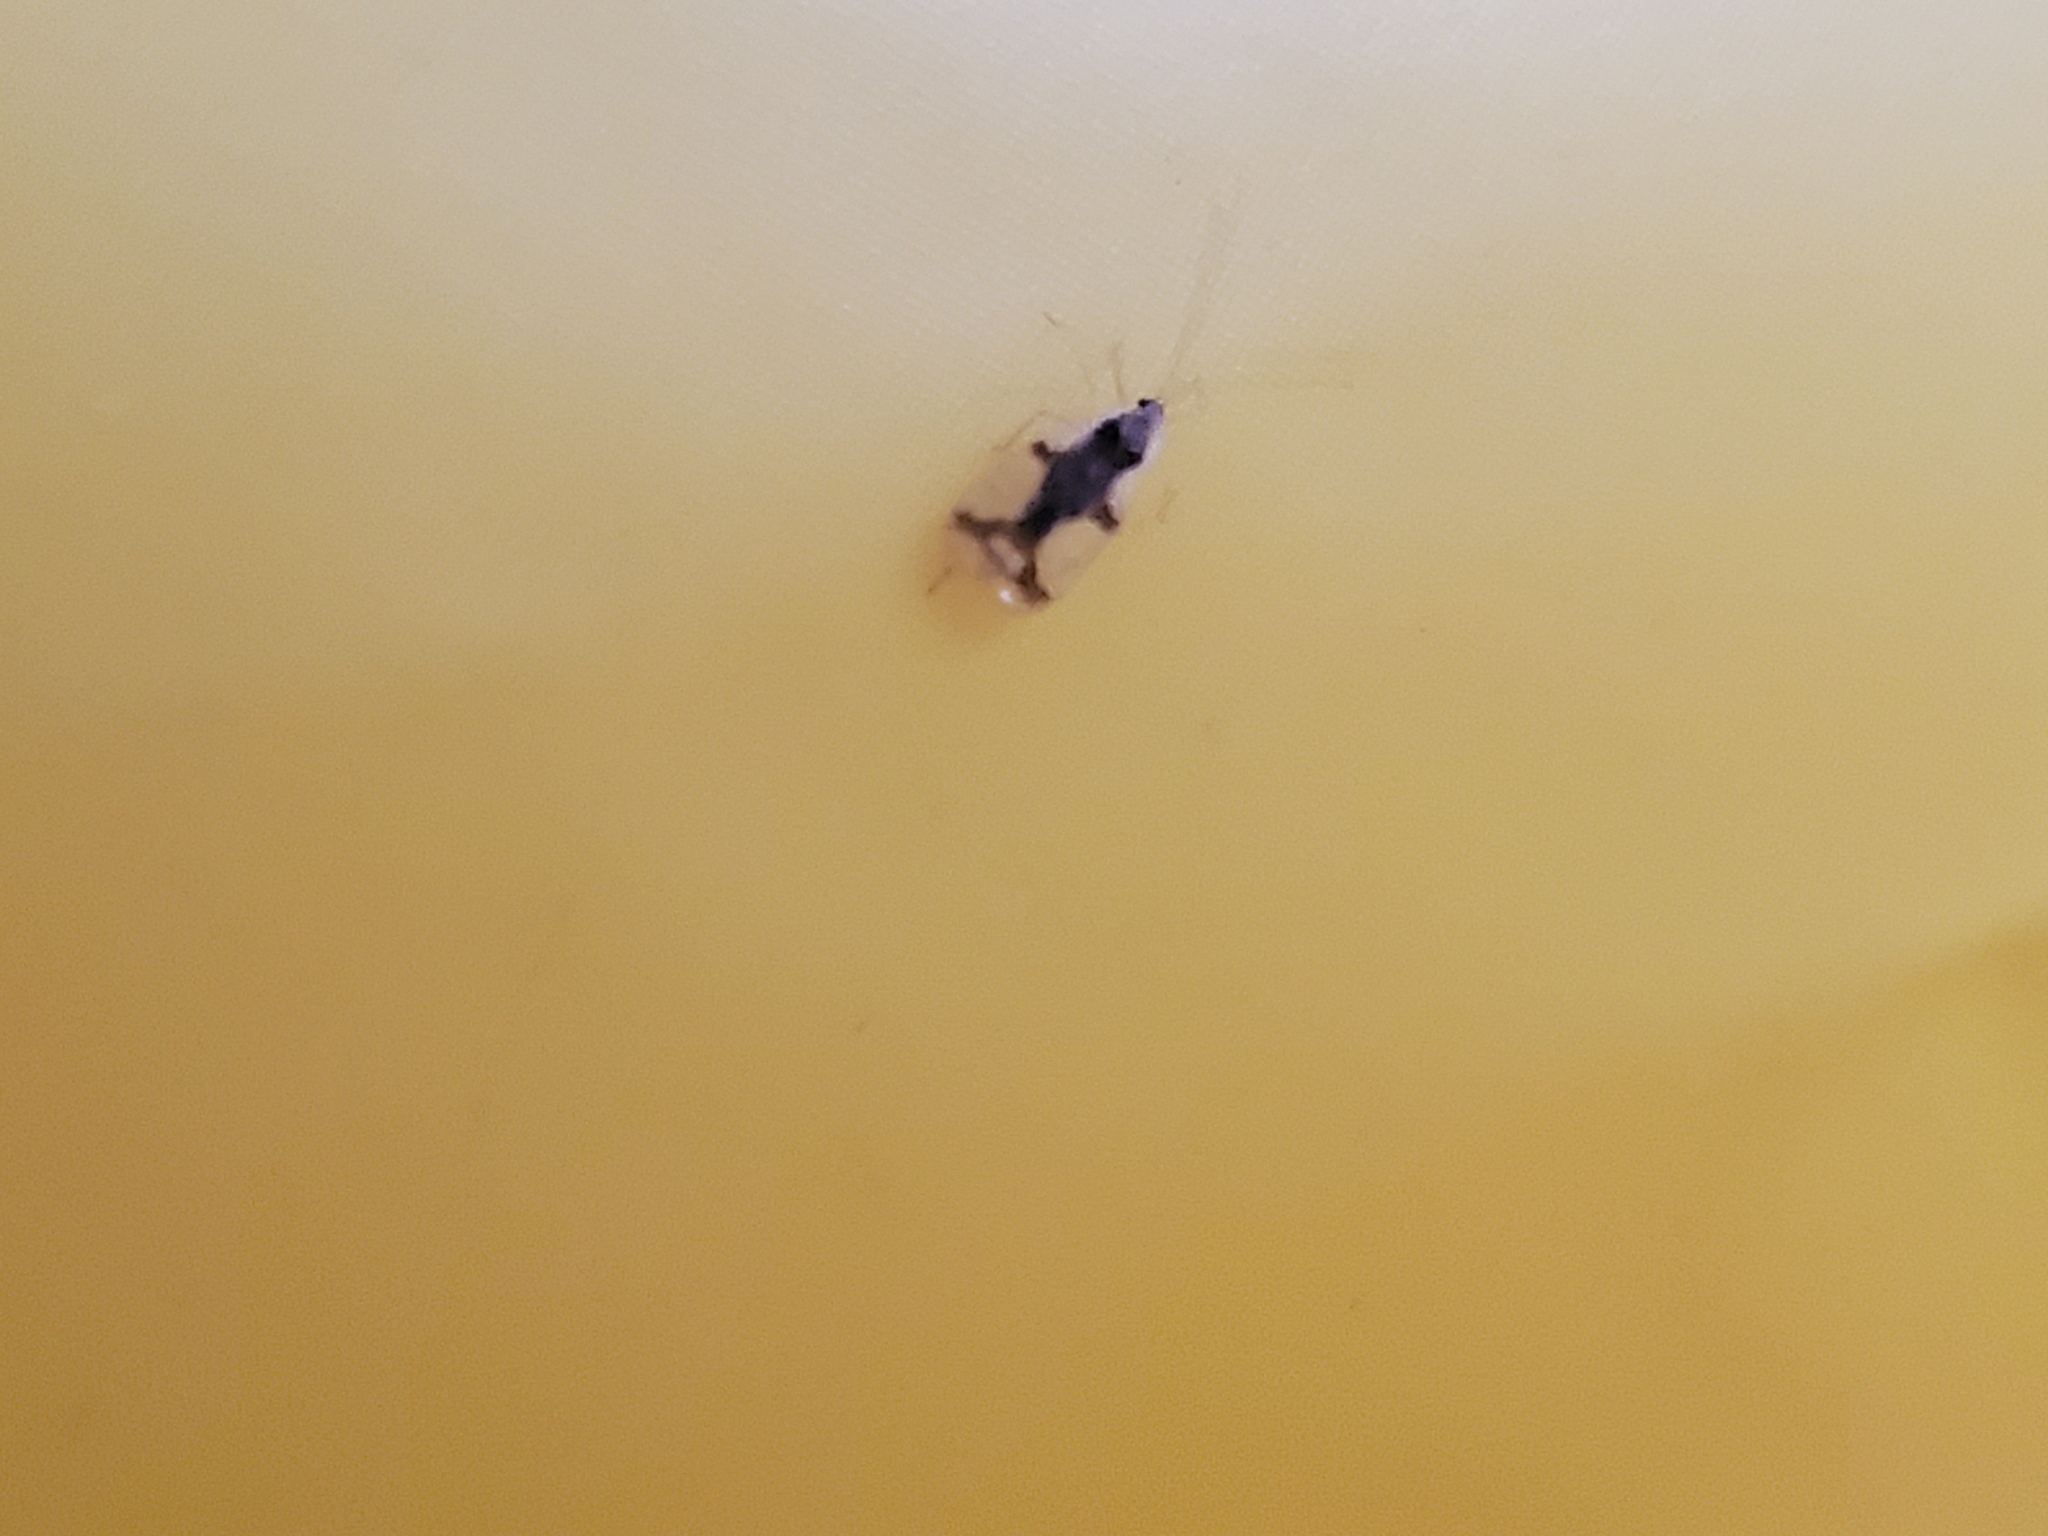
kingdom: Animalia
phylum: Arthropoda
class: Insecta
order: Hemiptera
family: Tingidae
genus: Stephanitis
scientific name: Stephanitis takeyai
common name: Andromeda lacebug
